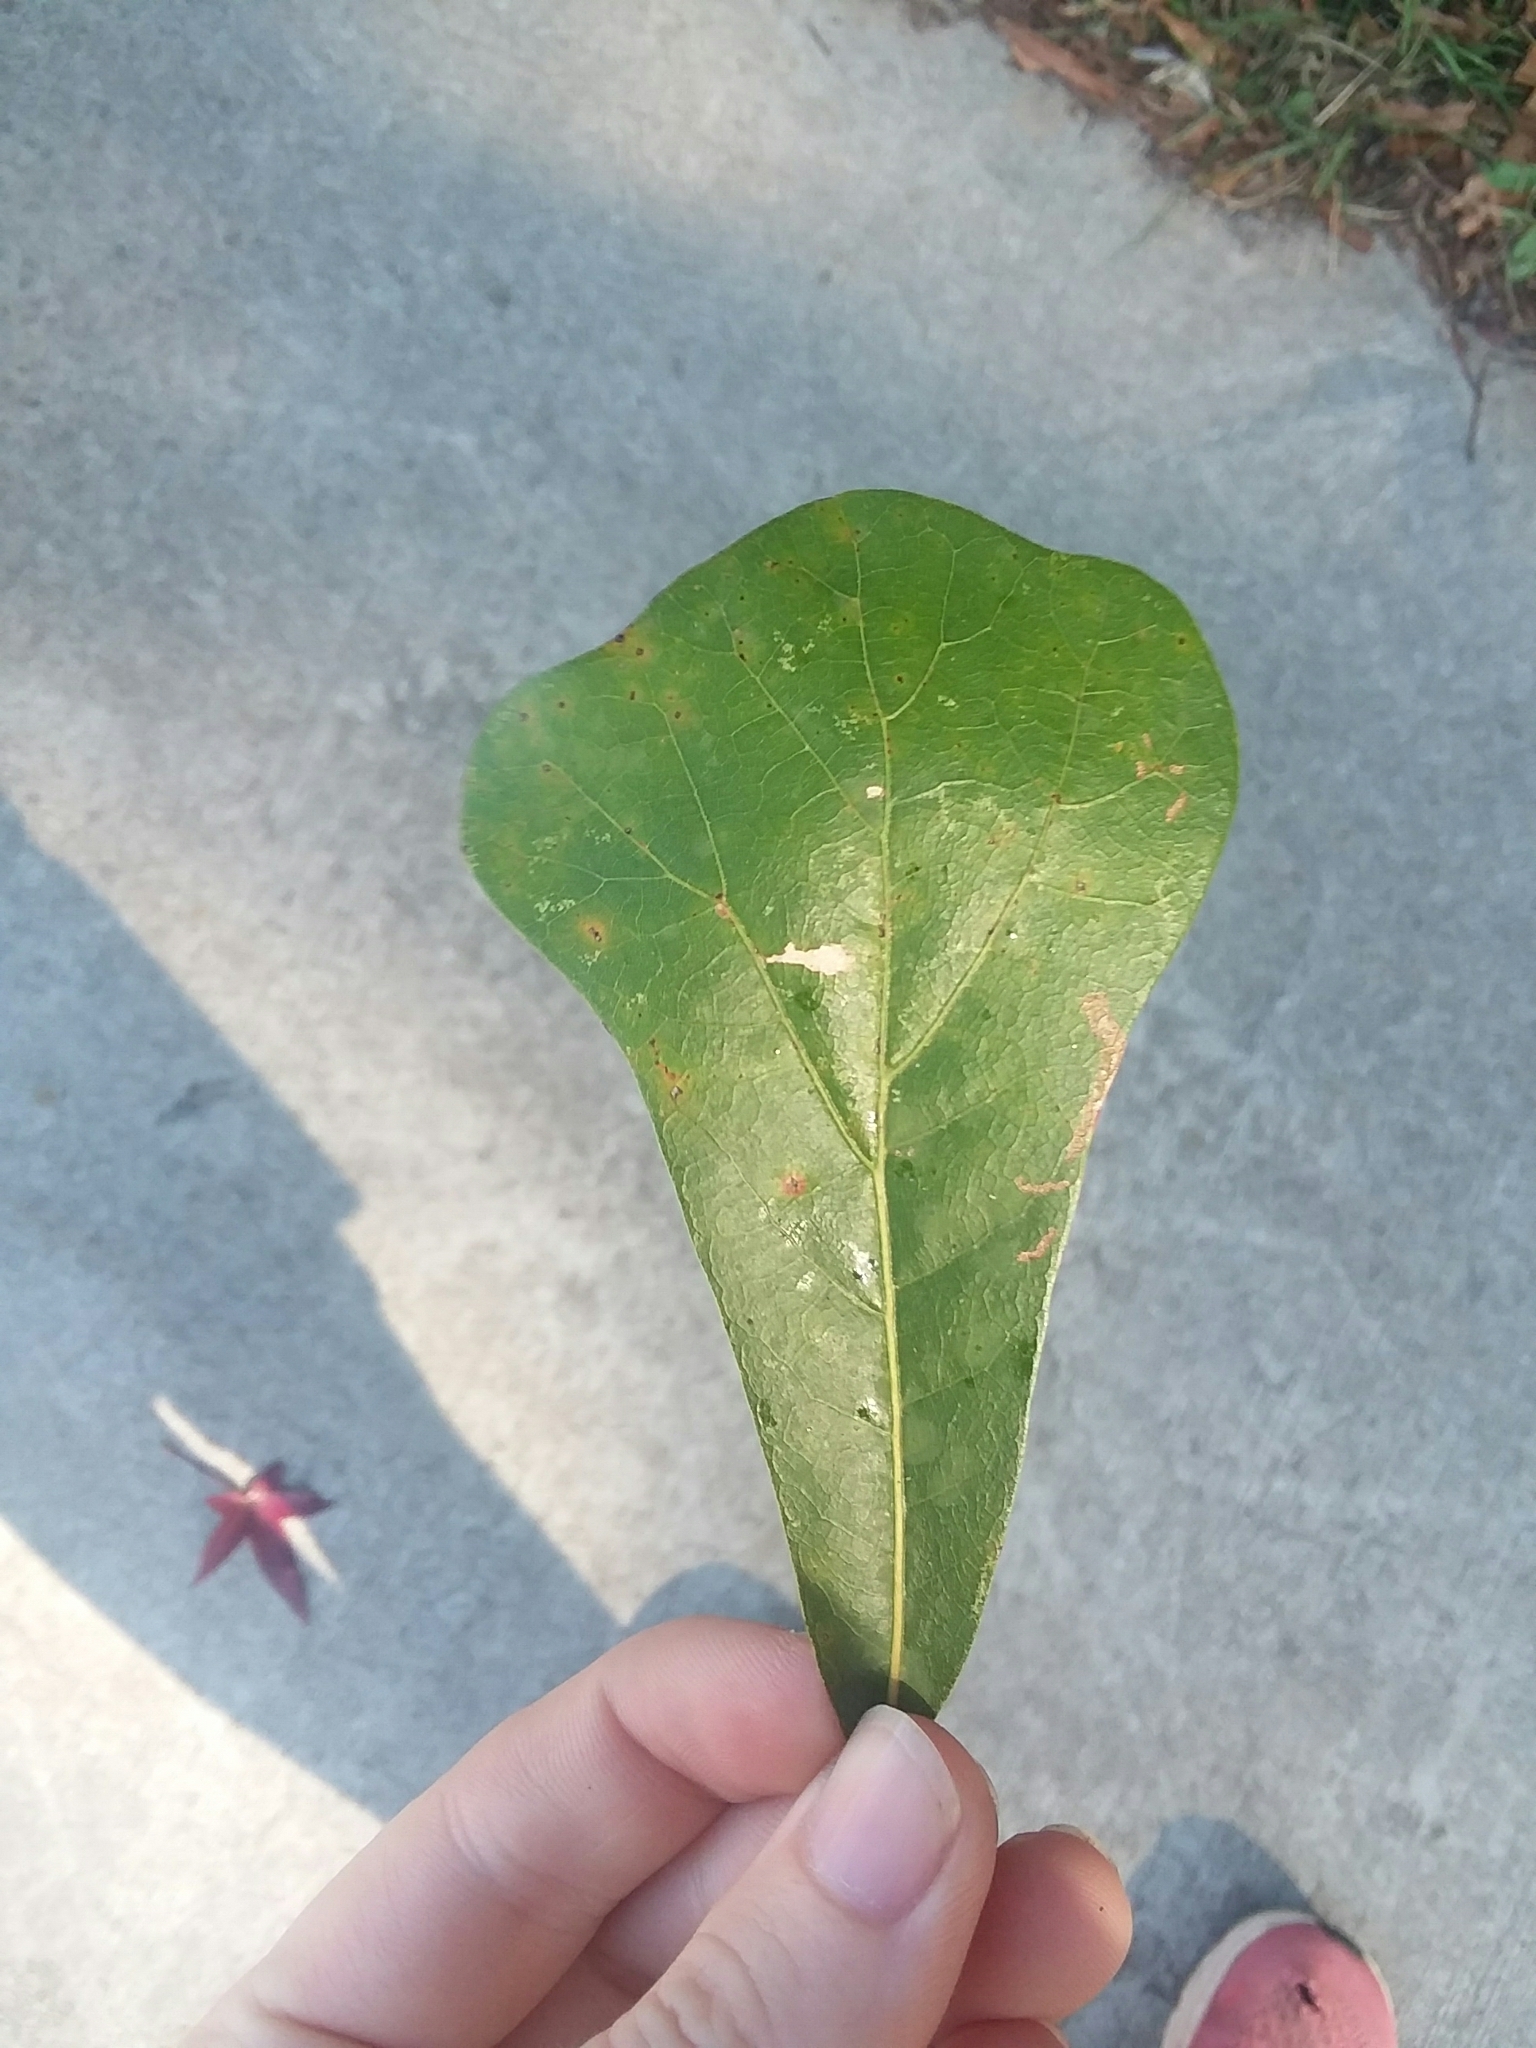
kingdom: Plantae
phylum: Tracheophyta
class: Magnoliopsida
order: Fagales
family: Fagaceae
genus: Quercus
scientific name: Quercus nigra
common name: Water oak
